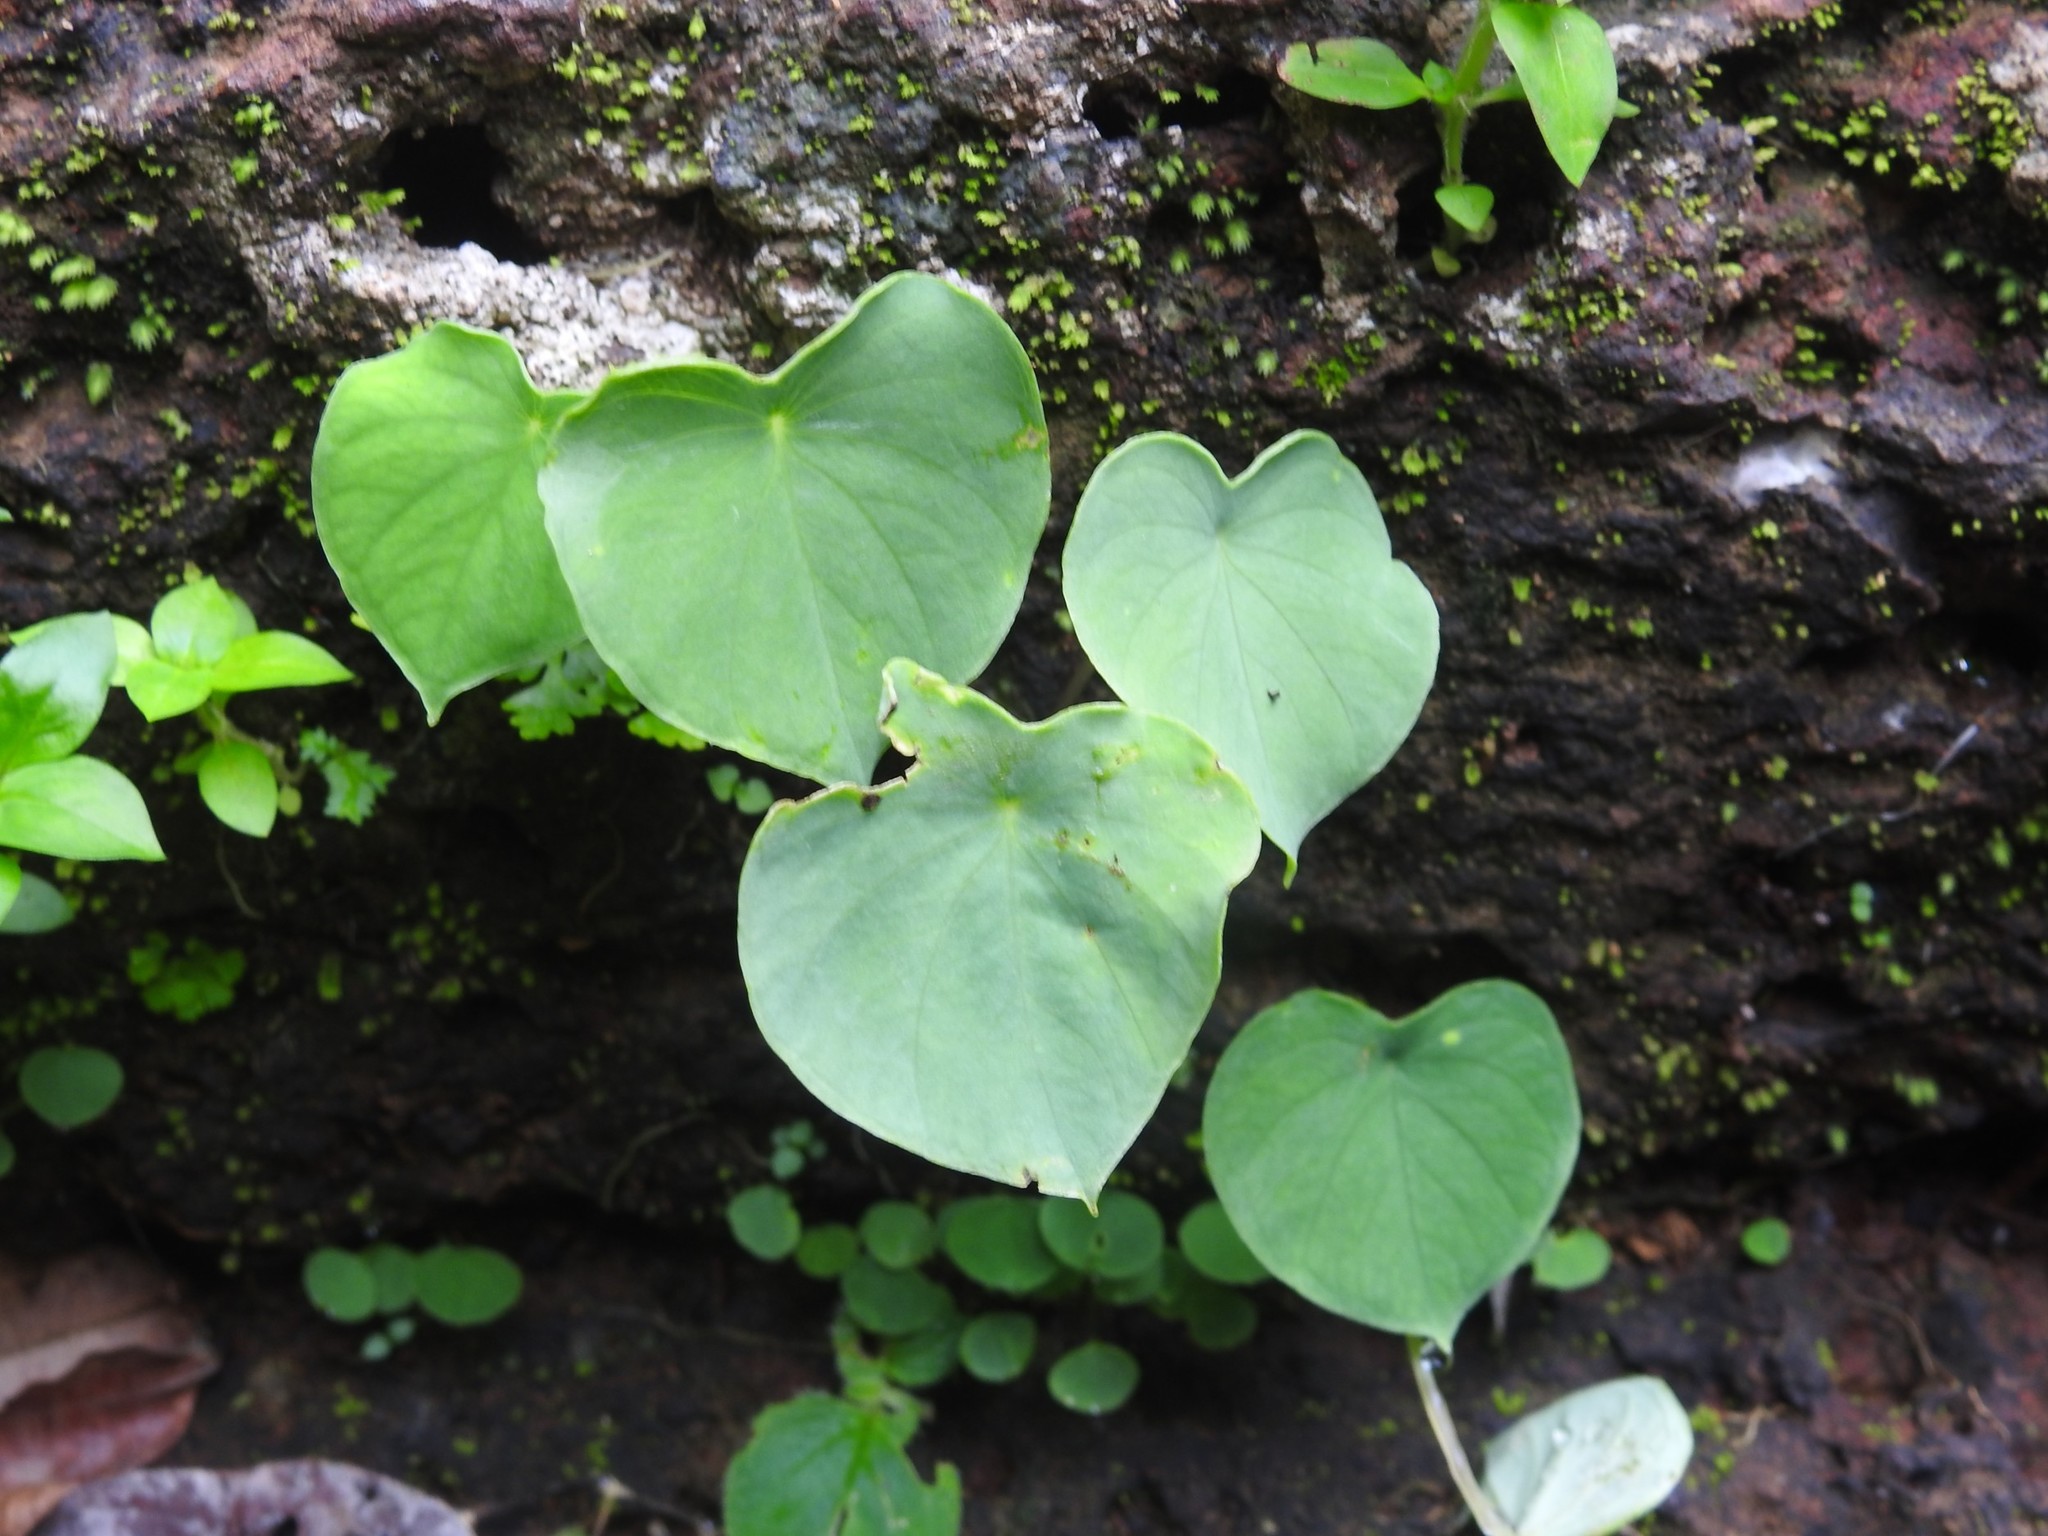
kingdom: Plantae
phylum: Tracheophyta
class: Liliopsida
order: Alismatales
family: Araceae
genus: Ariopsis
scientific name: Ariopsis peltata
